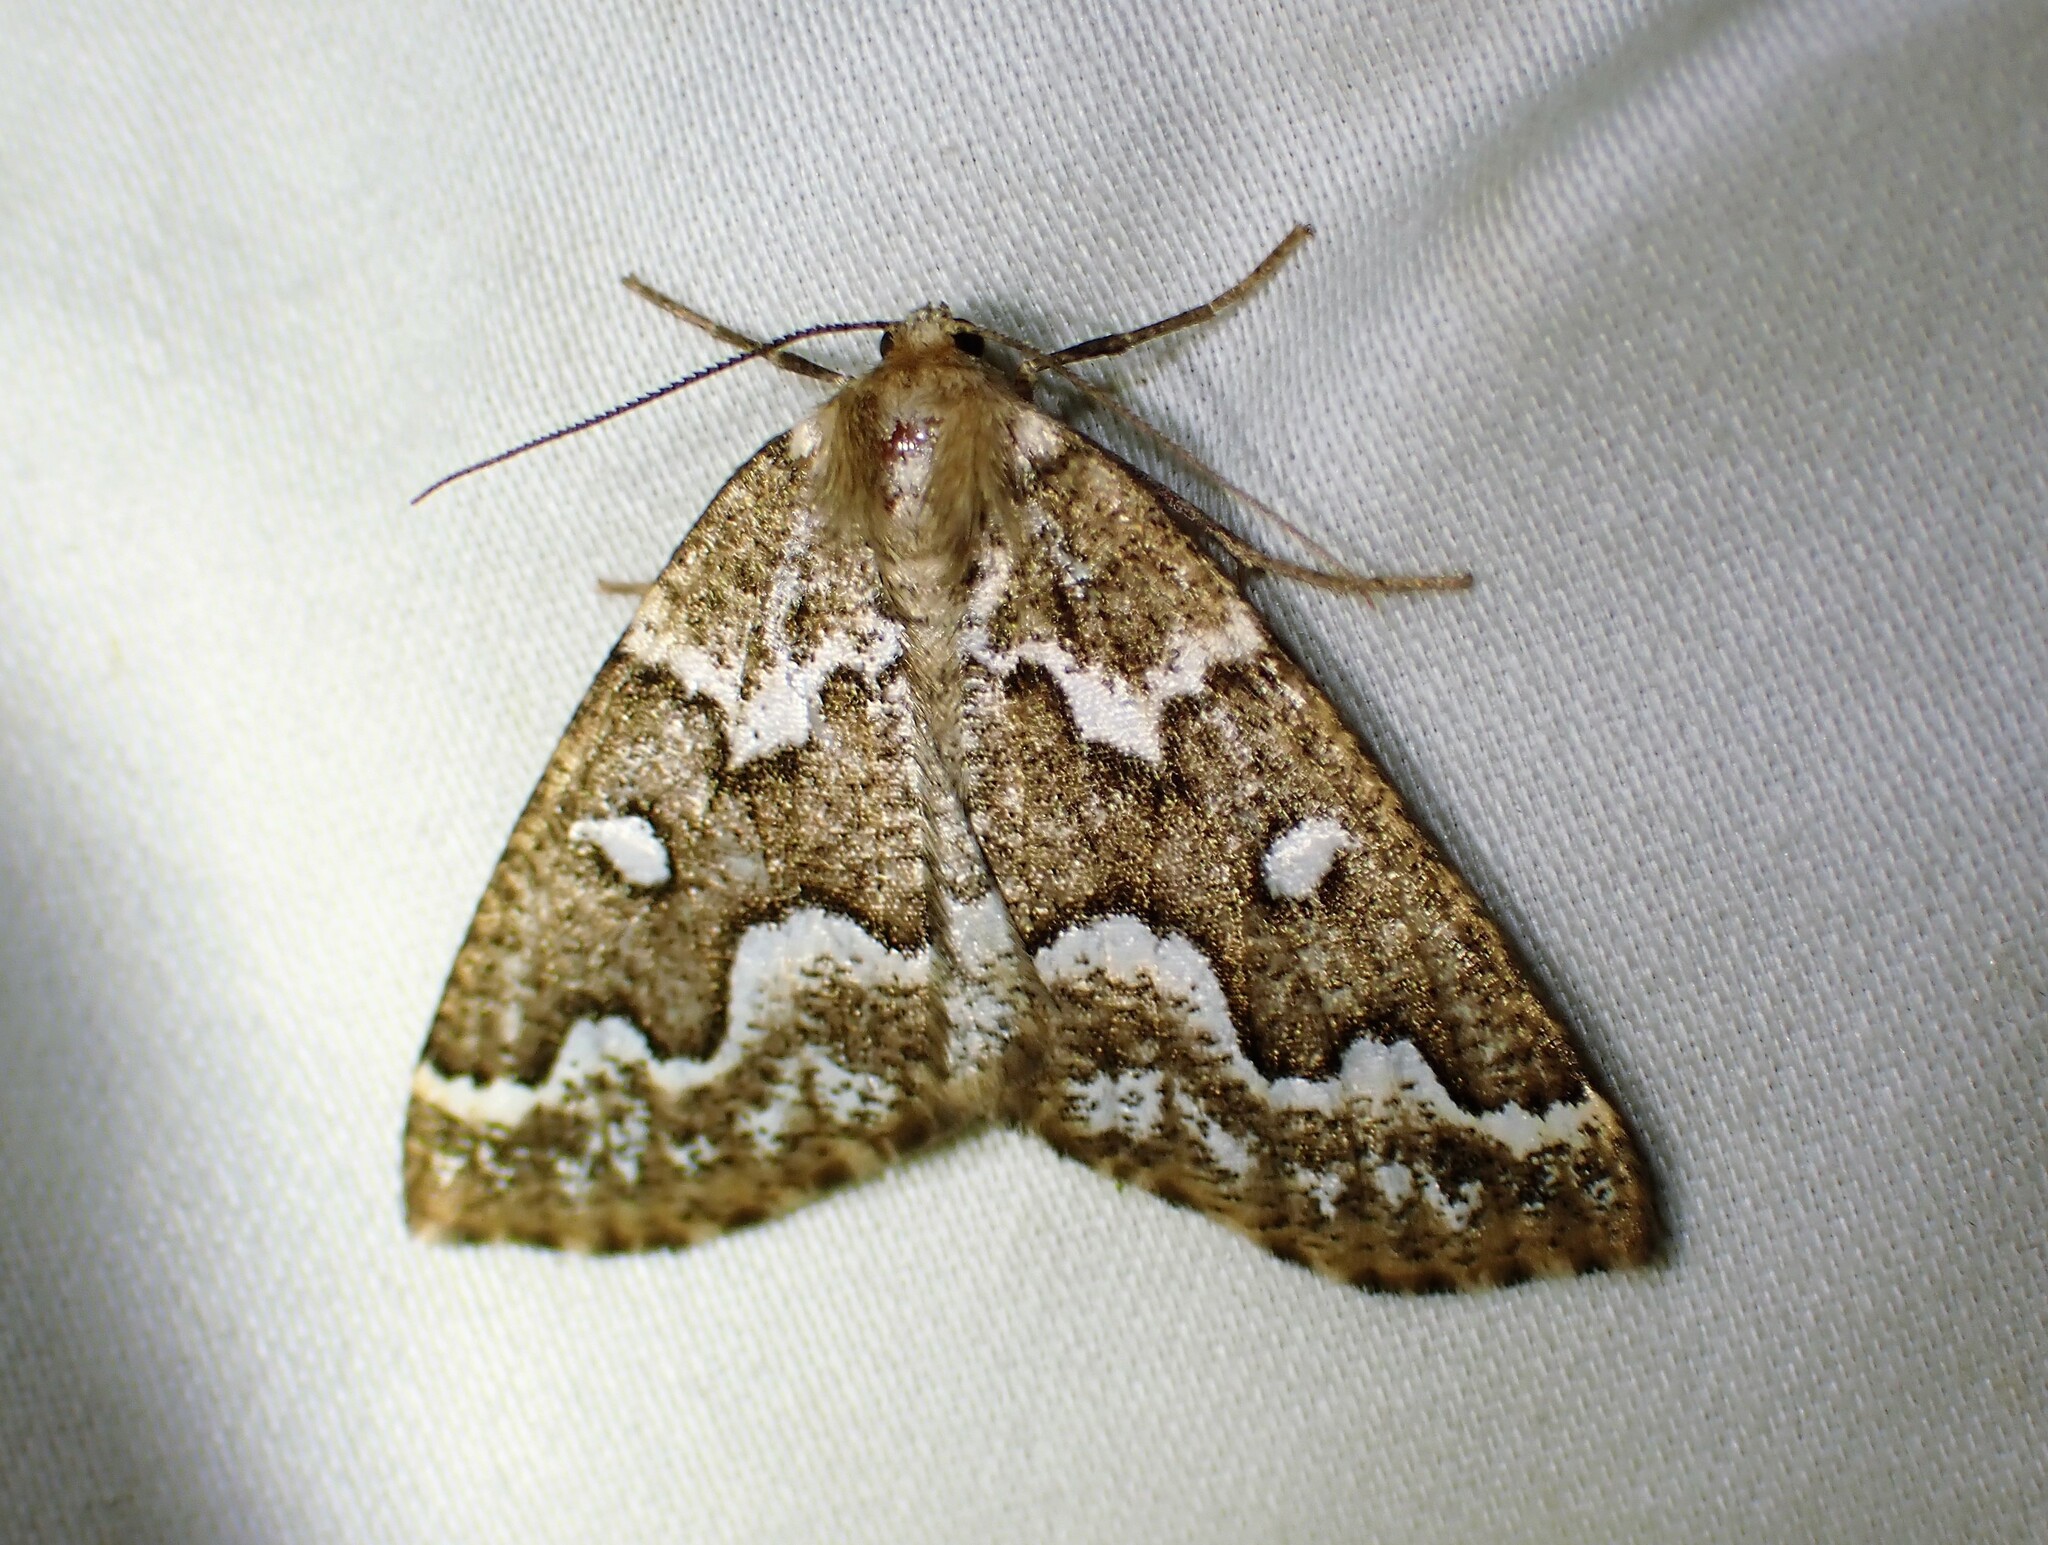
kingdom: Animalia
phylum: Arthropoda
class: Insecta
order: Lepidoptera
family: Geometridae
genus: Caripeta
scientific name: Caripeta divisata
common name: Gray spruce looper
